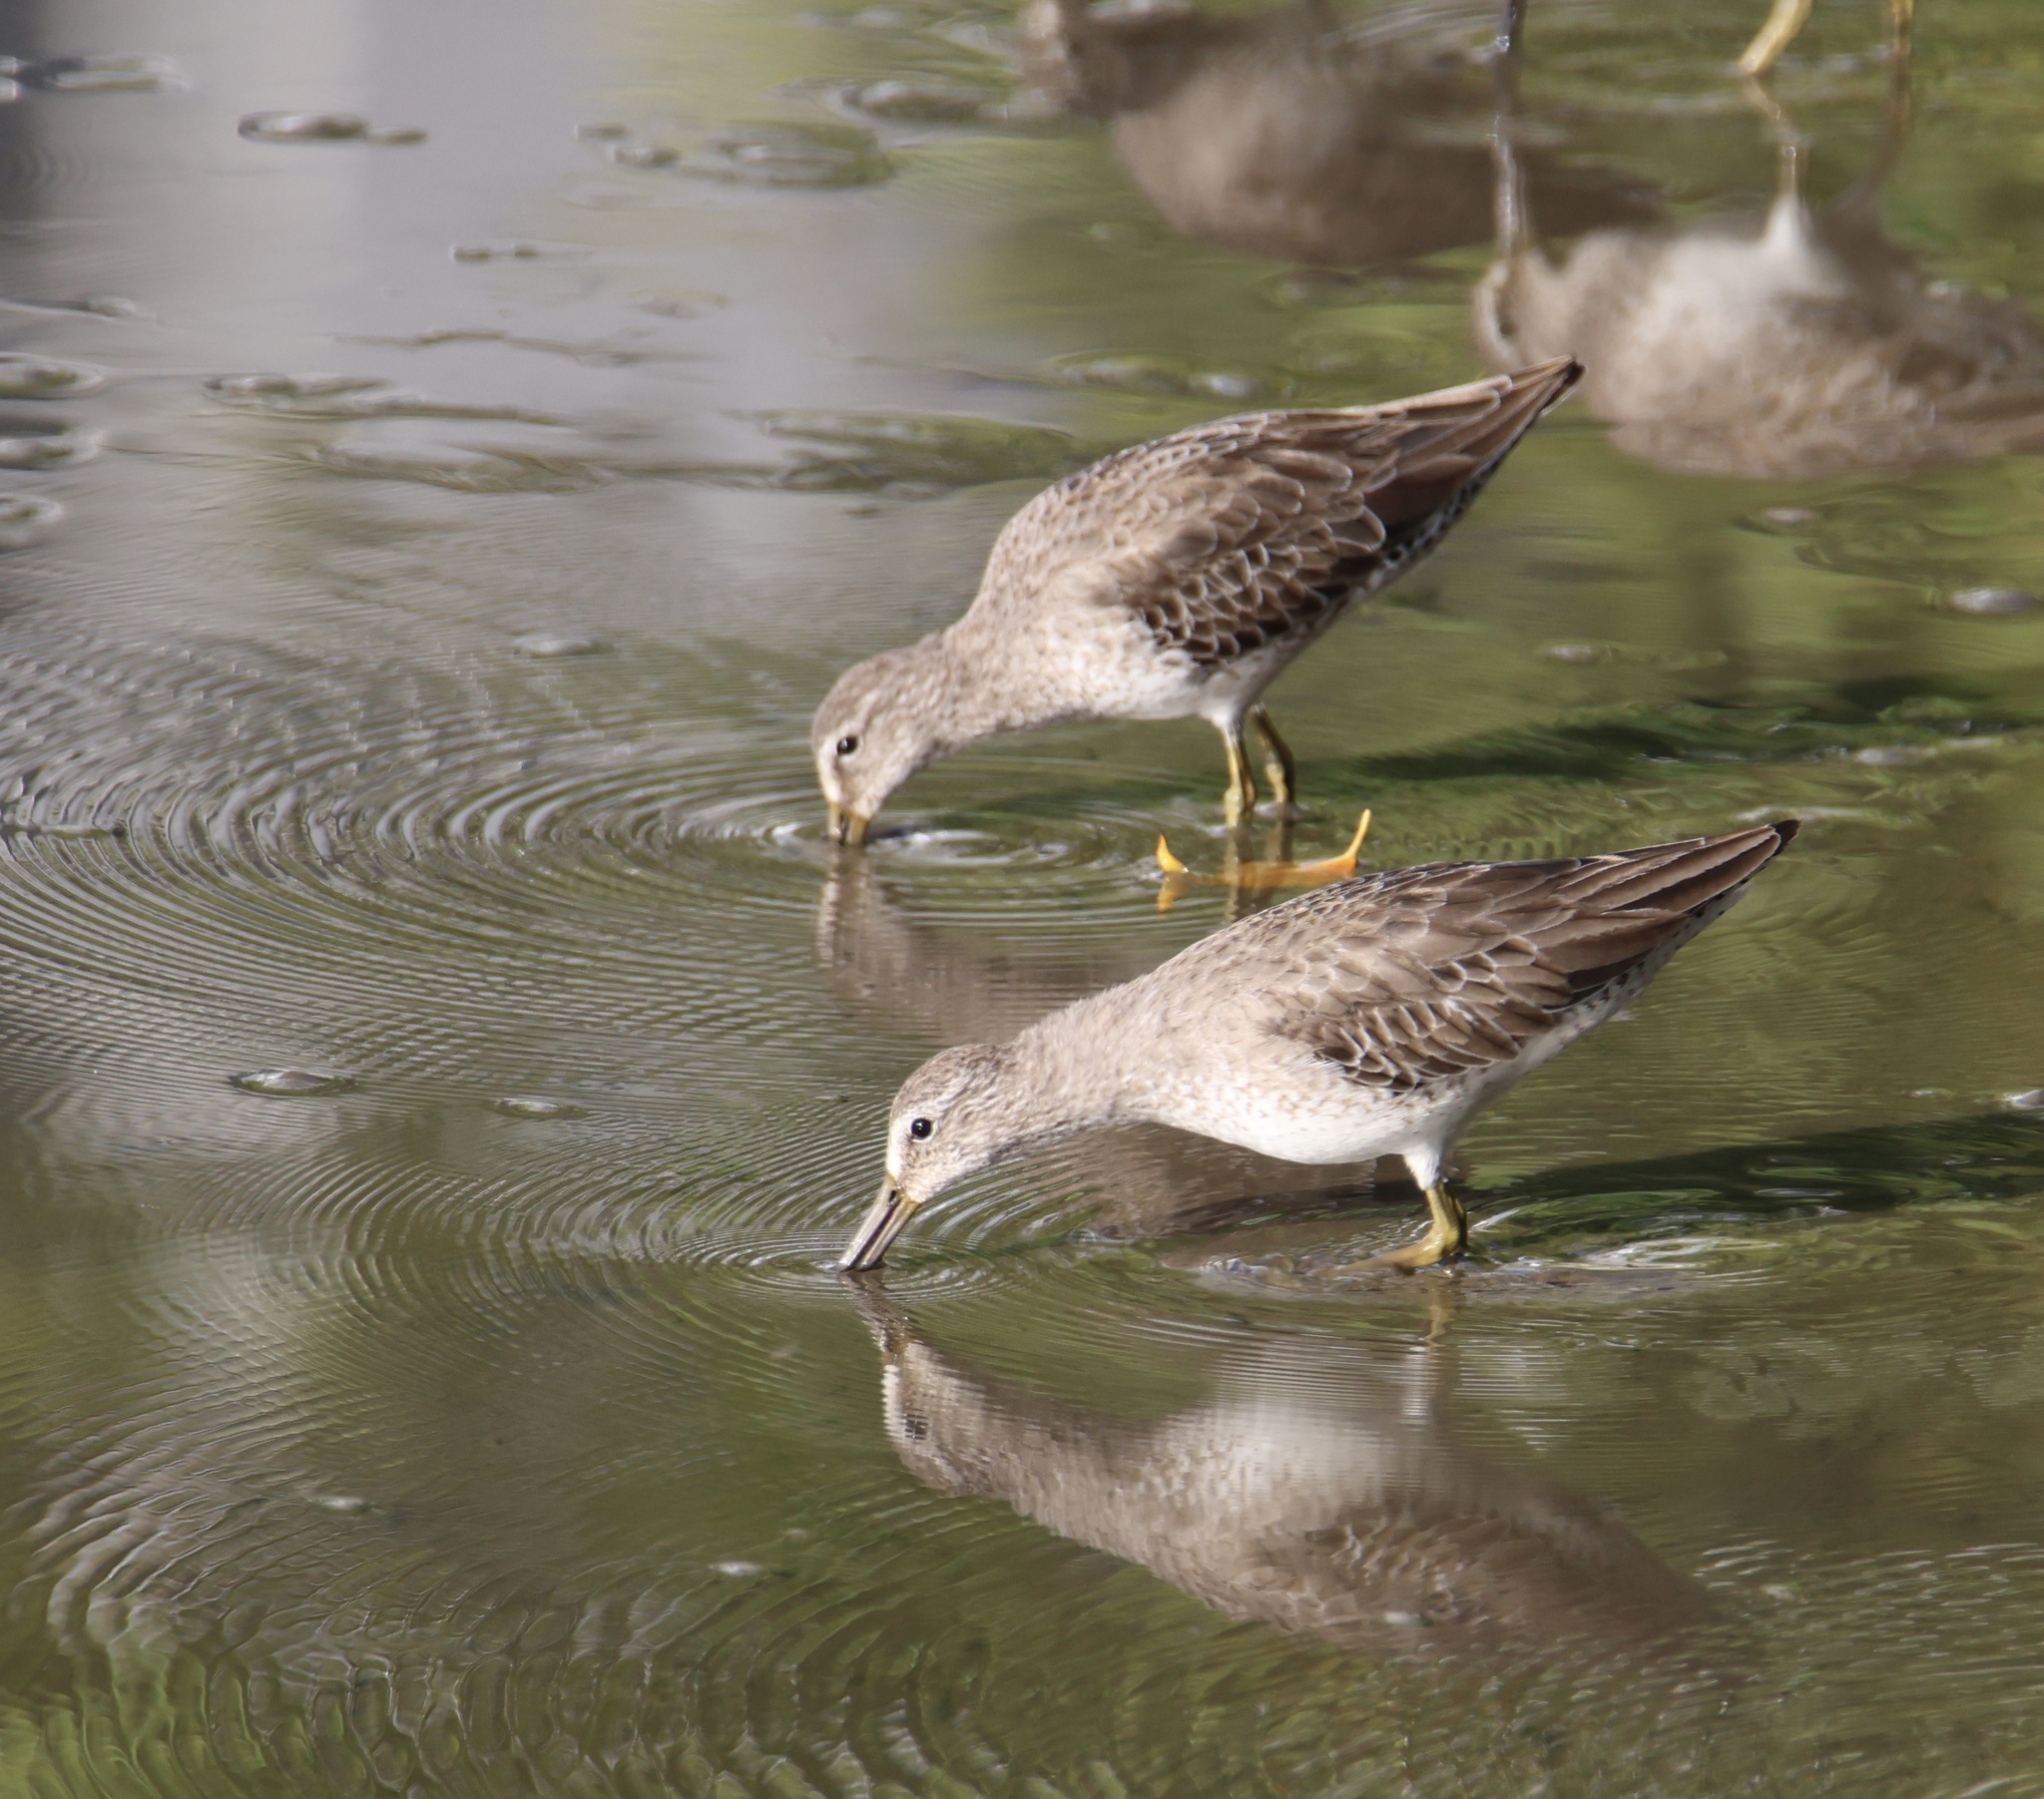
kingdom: Animalia
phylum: Chordata
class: Aves
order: Charadriiformes
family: Scolopacidae
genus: Limnodromus
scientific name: Limnodromus griseus
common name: Short-billed dowitcher
